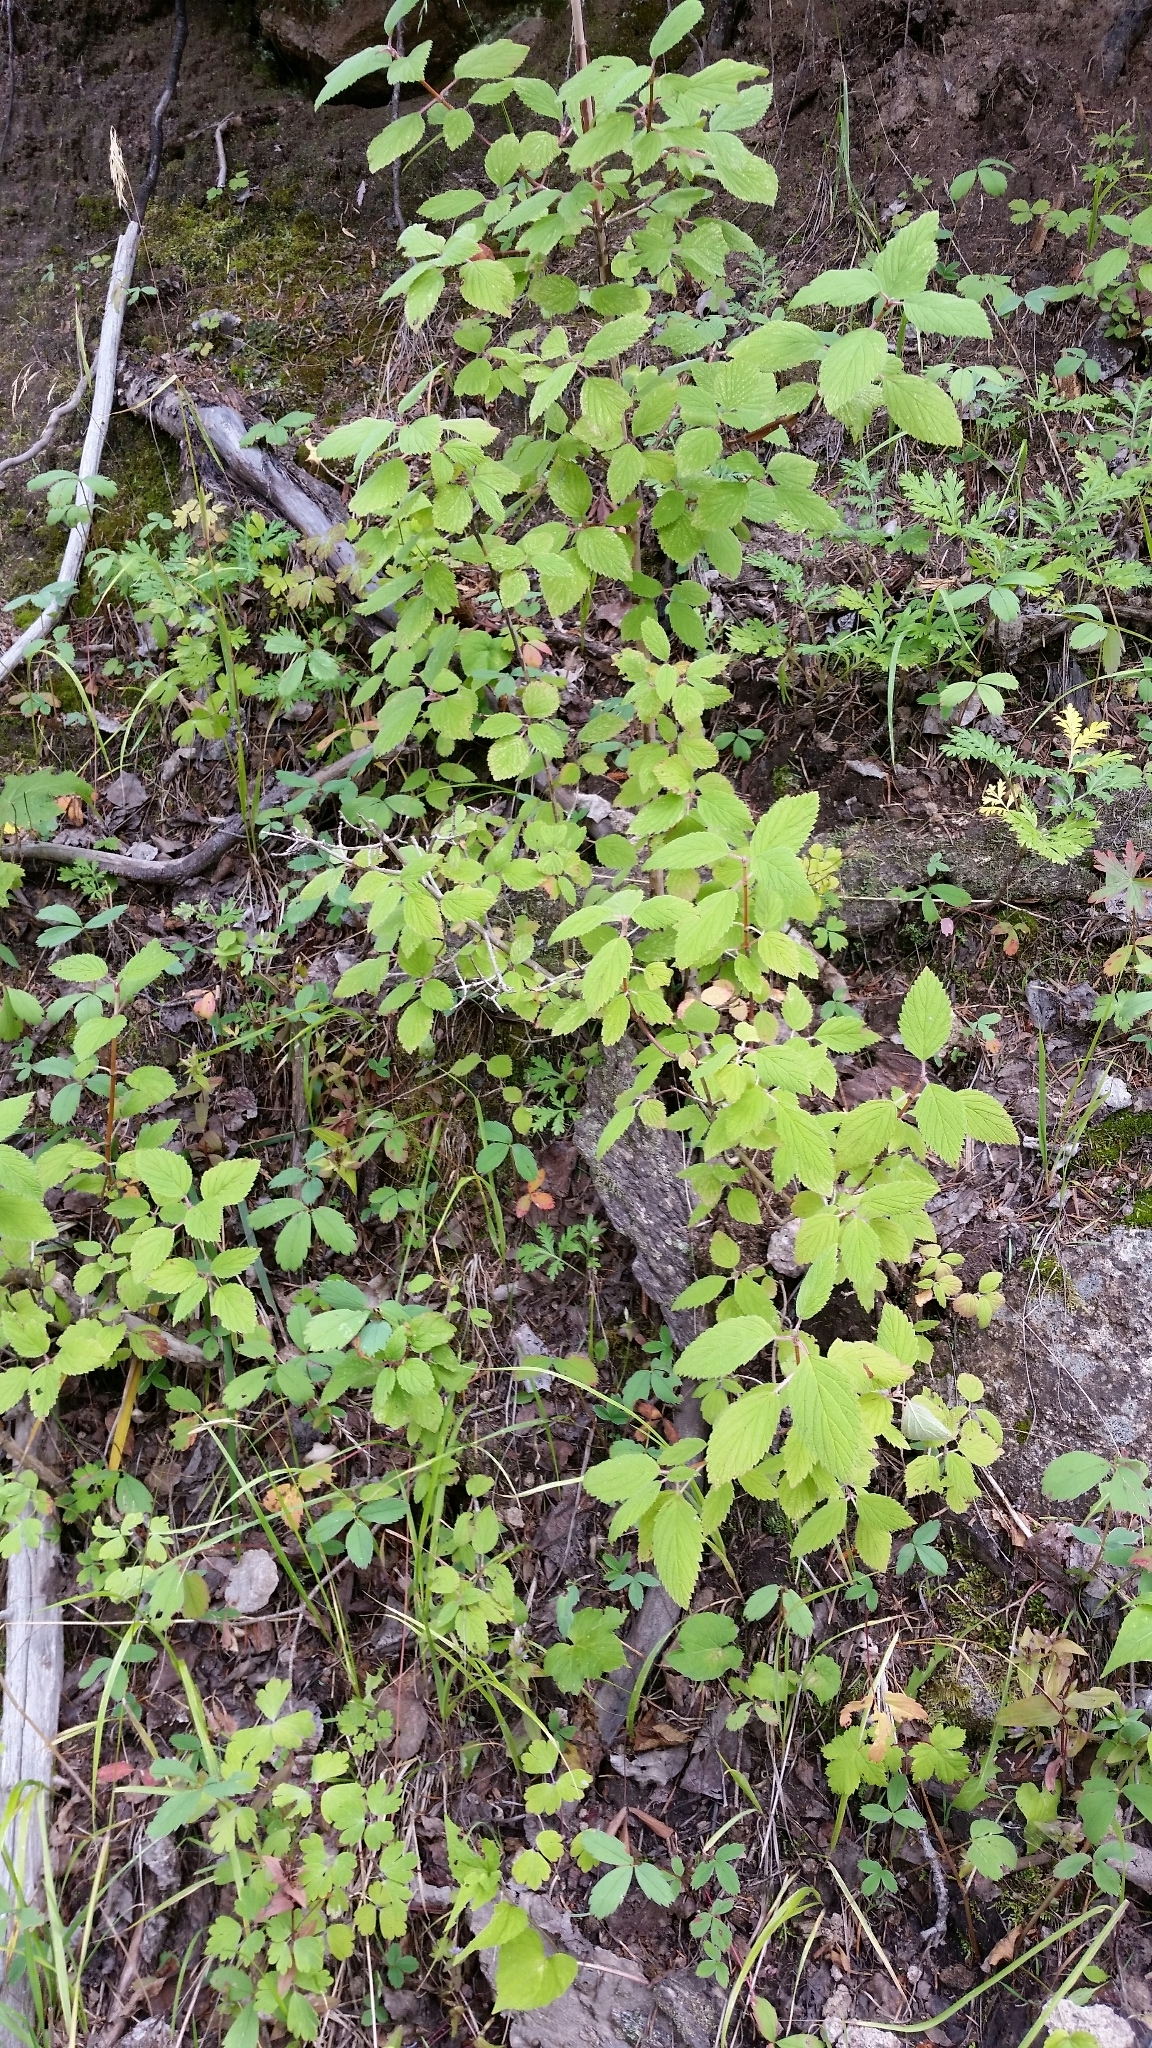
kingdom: Plantae
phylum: Tracheophyta
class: Magnoliopsida
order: Cornales
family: Hydrangeaceae
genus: Jamesia
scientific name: Jamesia americana
